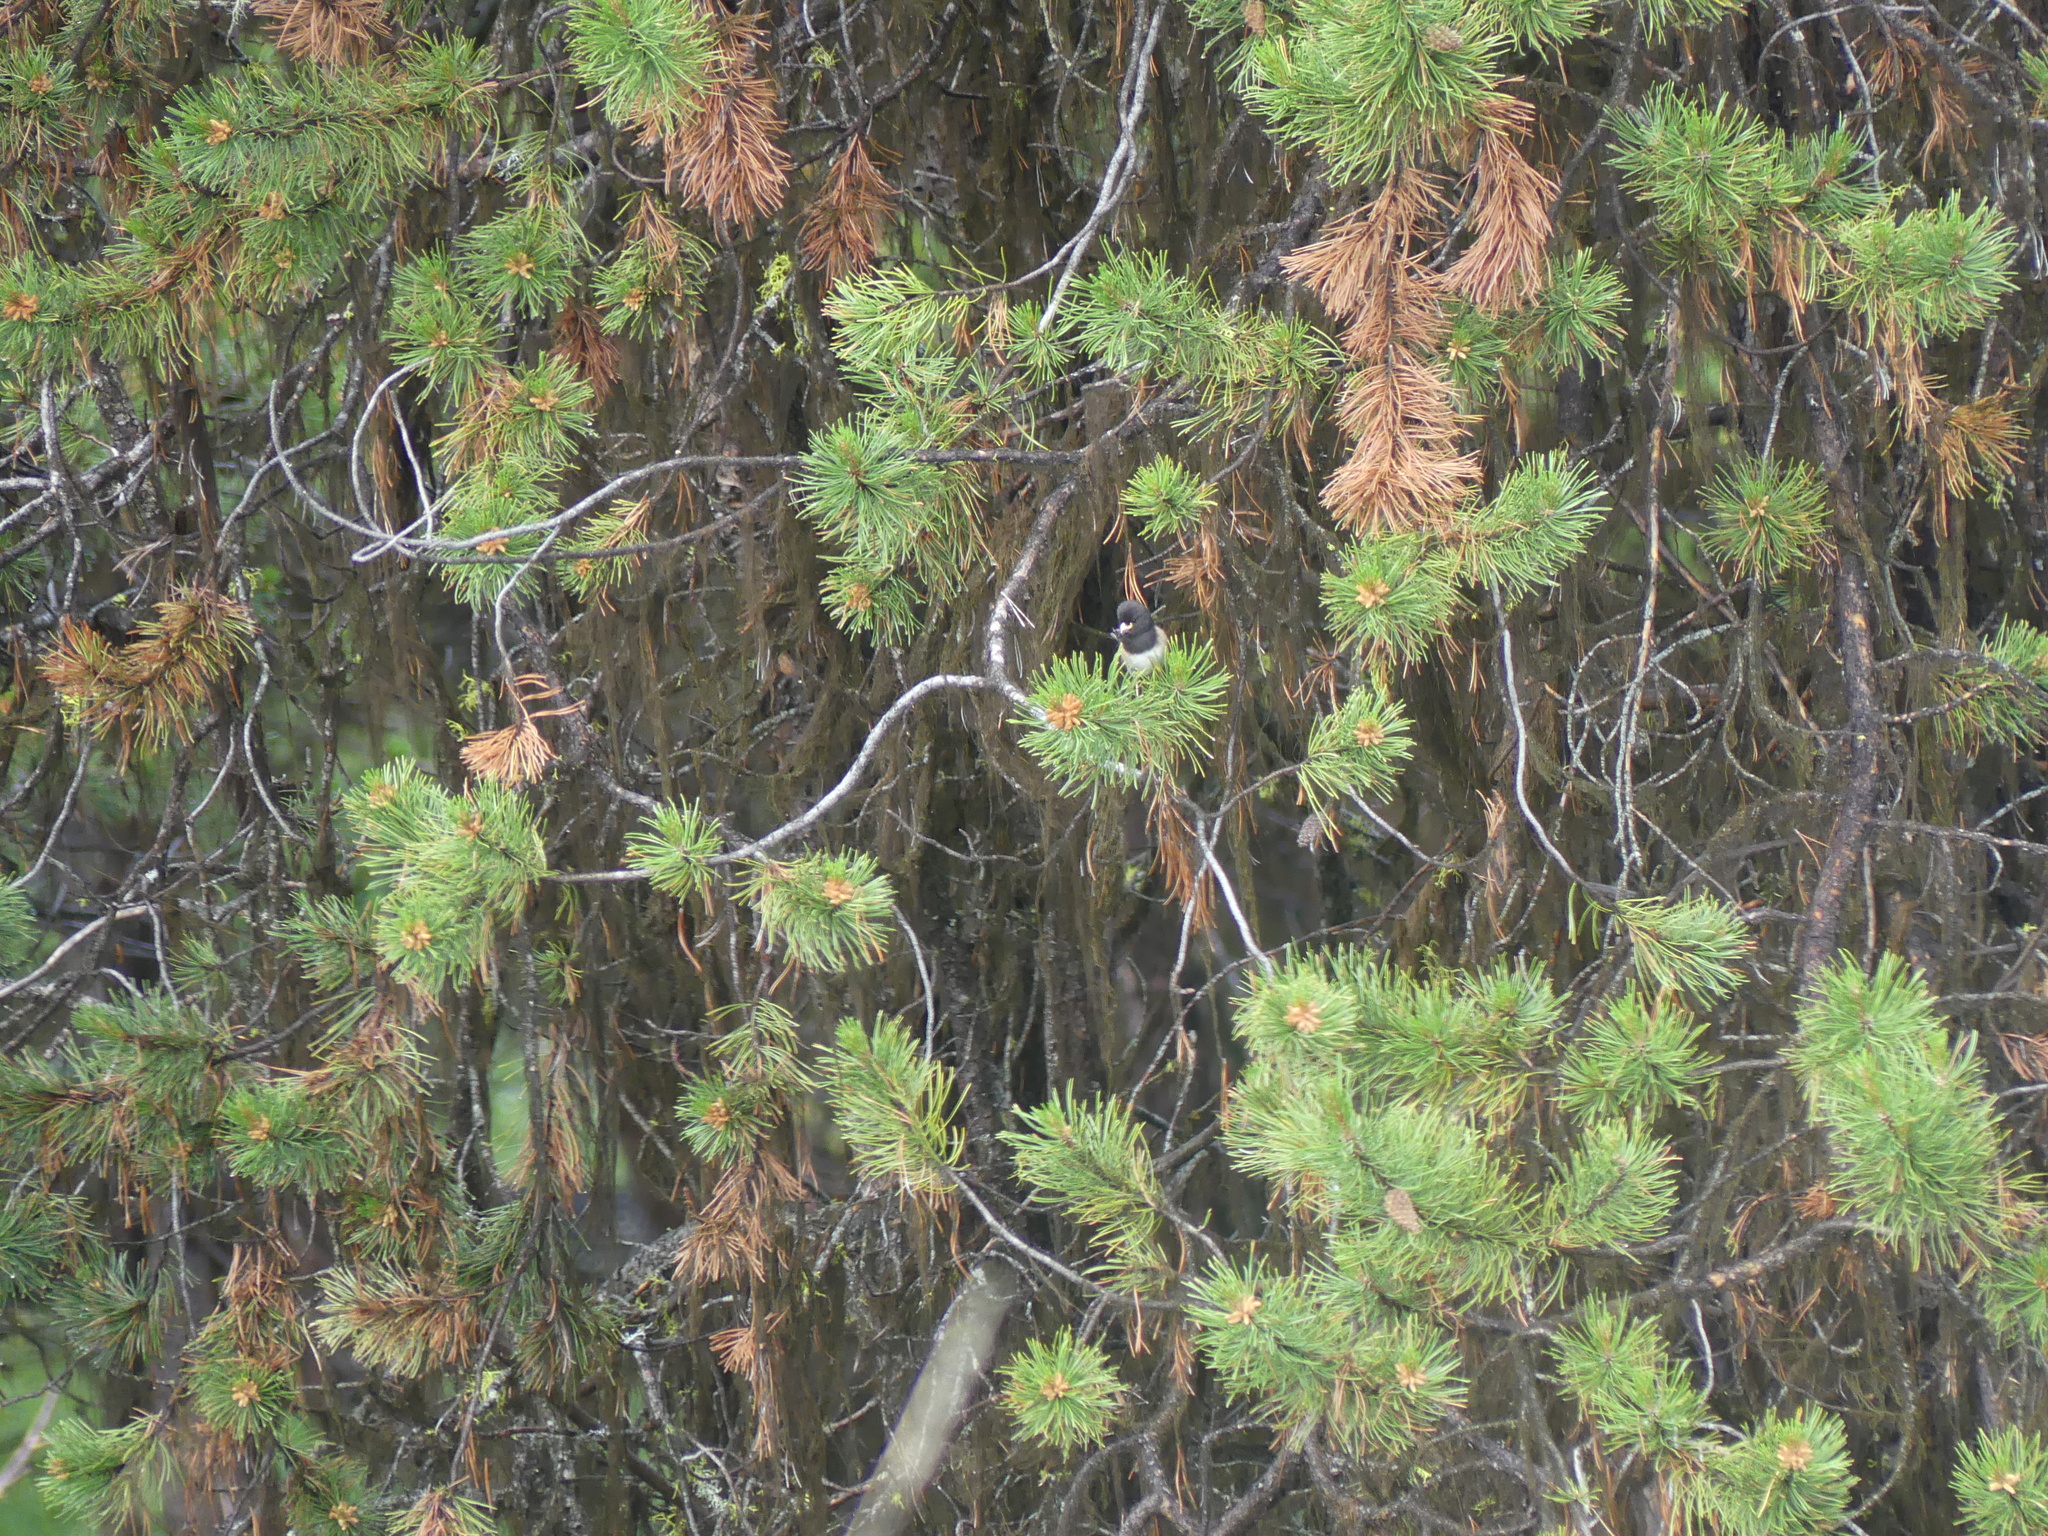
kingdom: Animalia
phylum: Chordata
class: Aves
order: Passeriformes
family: Passerellidae
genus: Junco
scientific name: Junco hyemalis
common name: Dark-eyed junco
